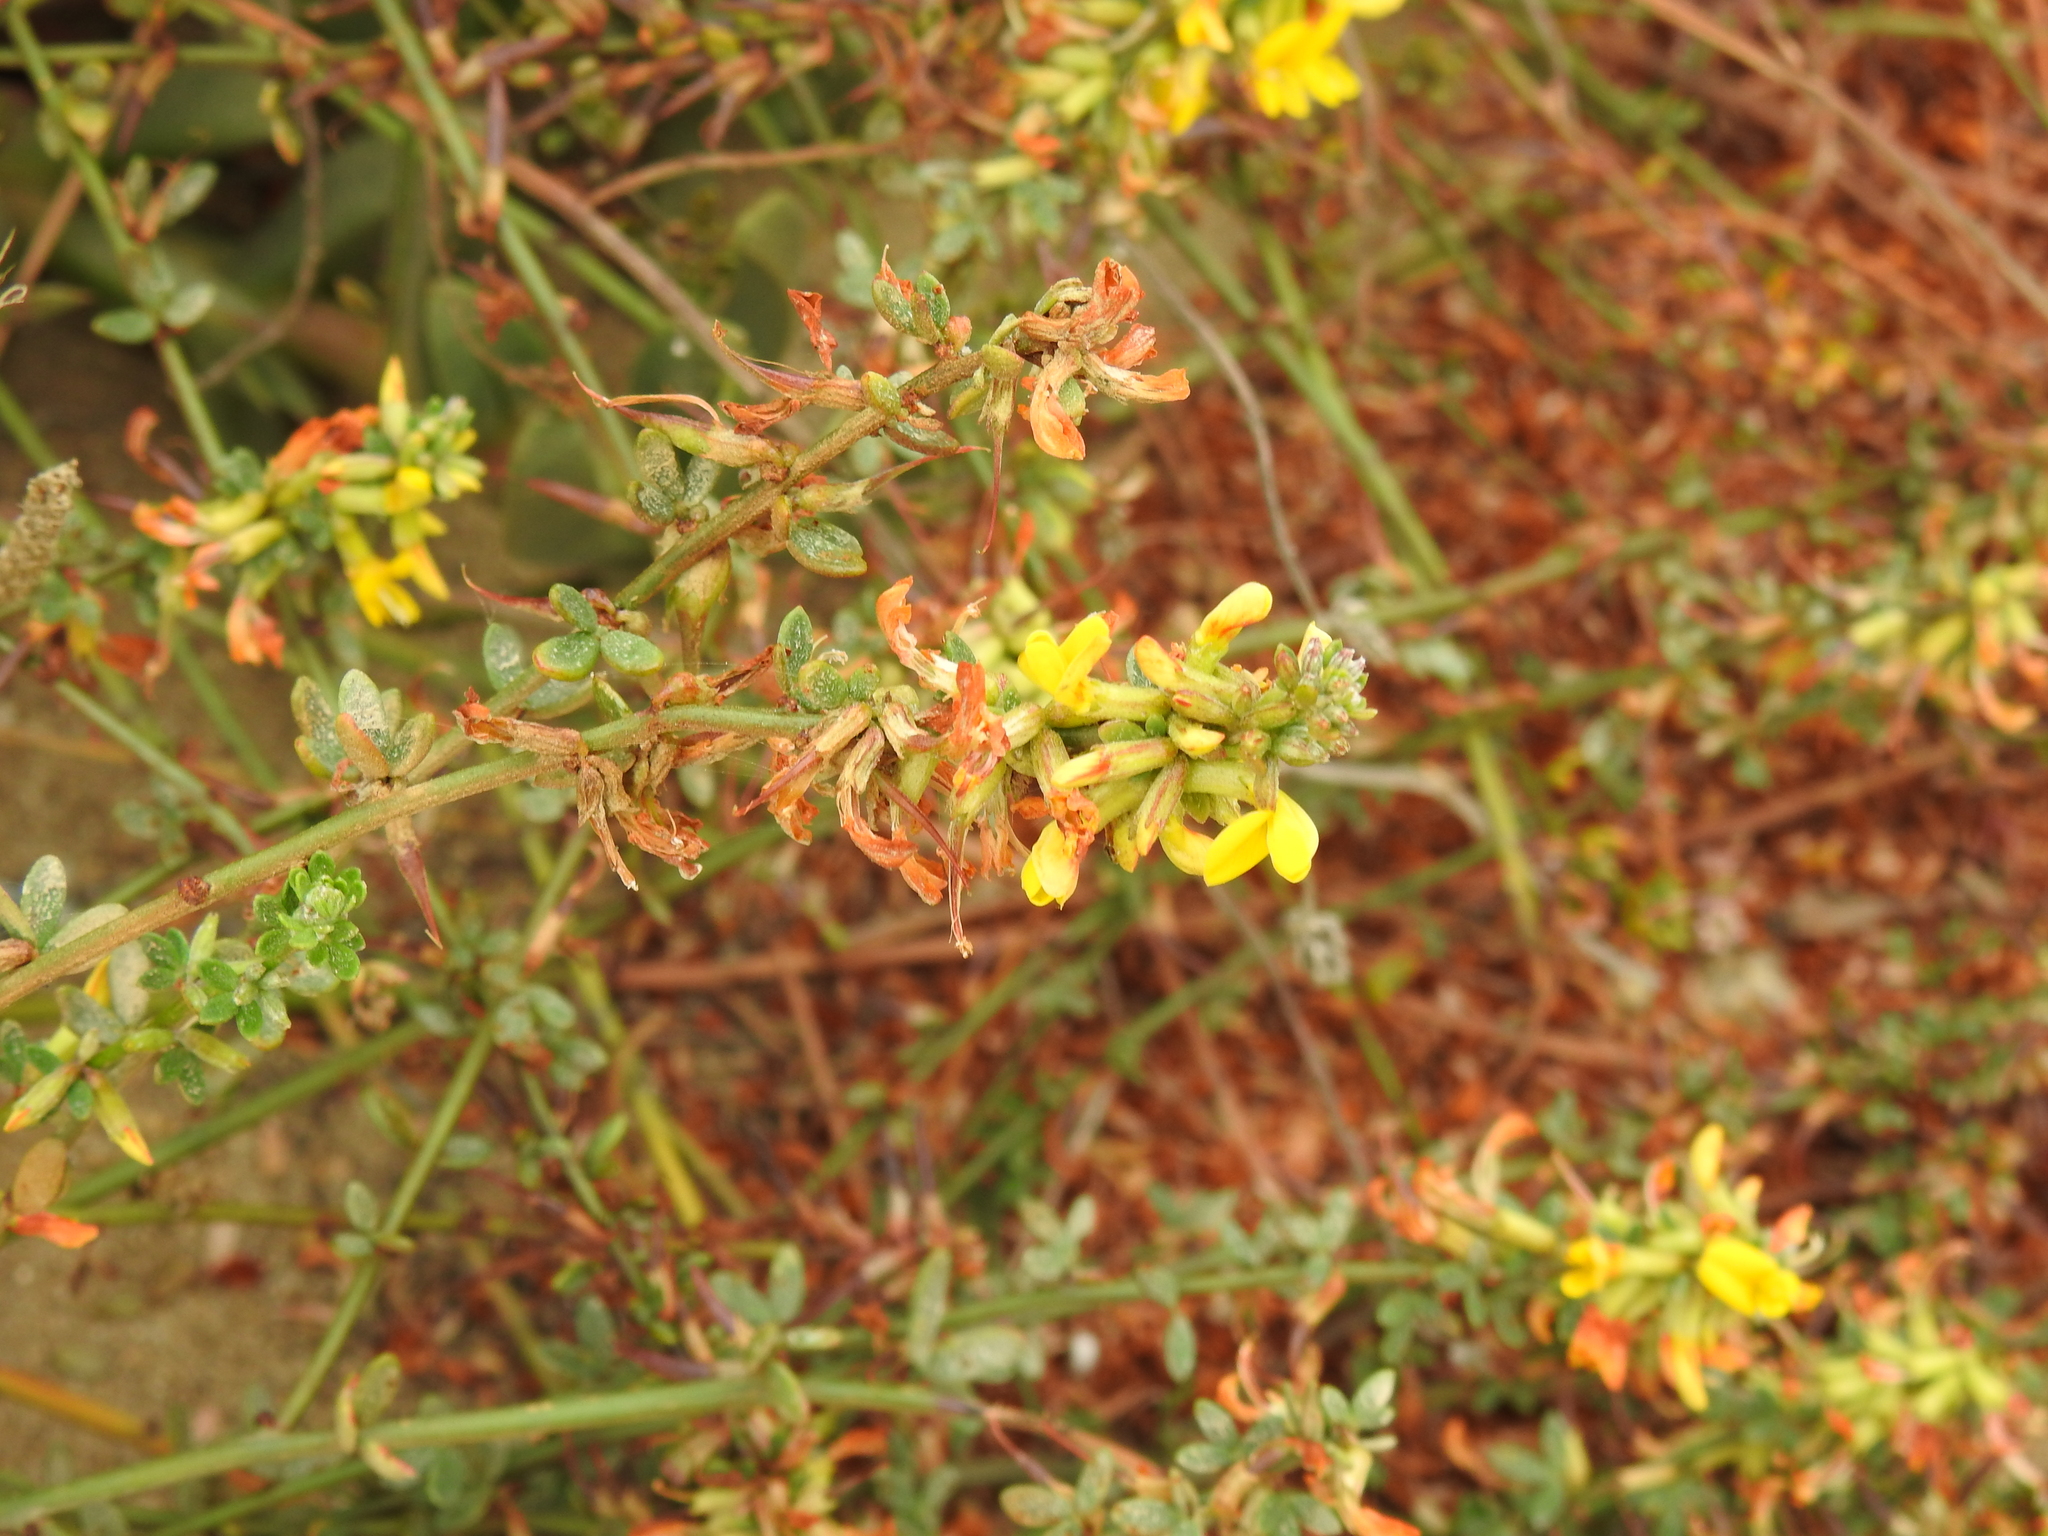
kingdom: Plantae
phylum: Tracheophyta
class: Magnoliopsida
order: Fabales
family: Fabaceae
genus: Acmispon
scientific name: Acmispon glaber
